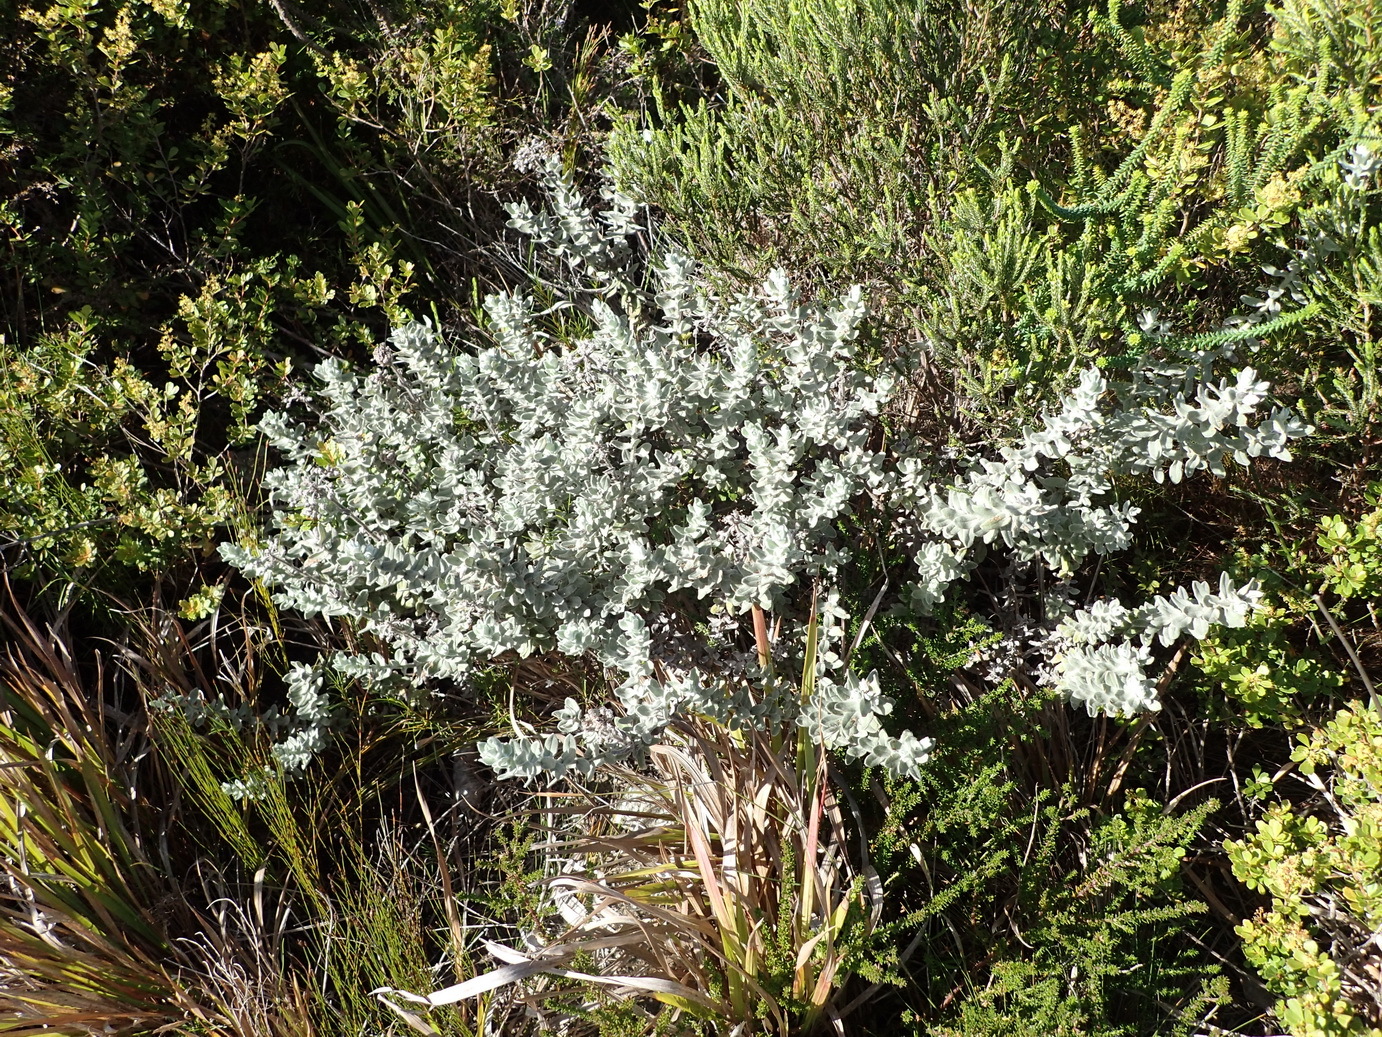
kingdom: Plantae
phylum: Tracheophyta
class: Magnoliopsida
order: Asterales
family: Asteraceae
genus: Helichrysum
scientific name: Helichrysum dasyanthum
